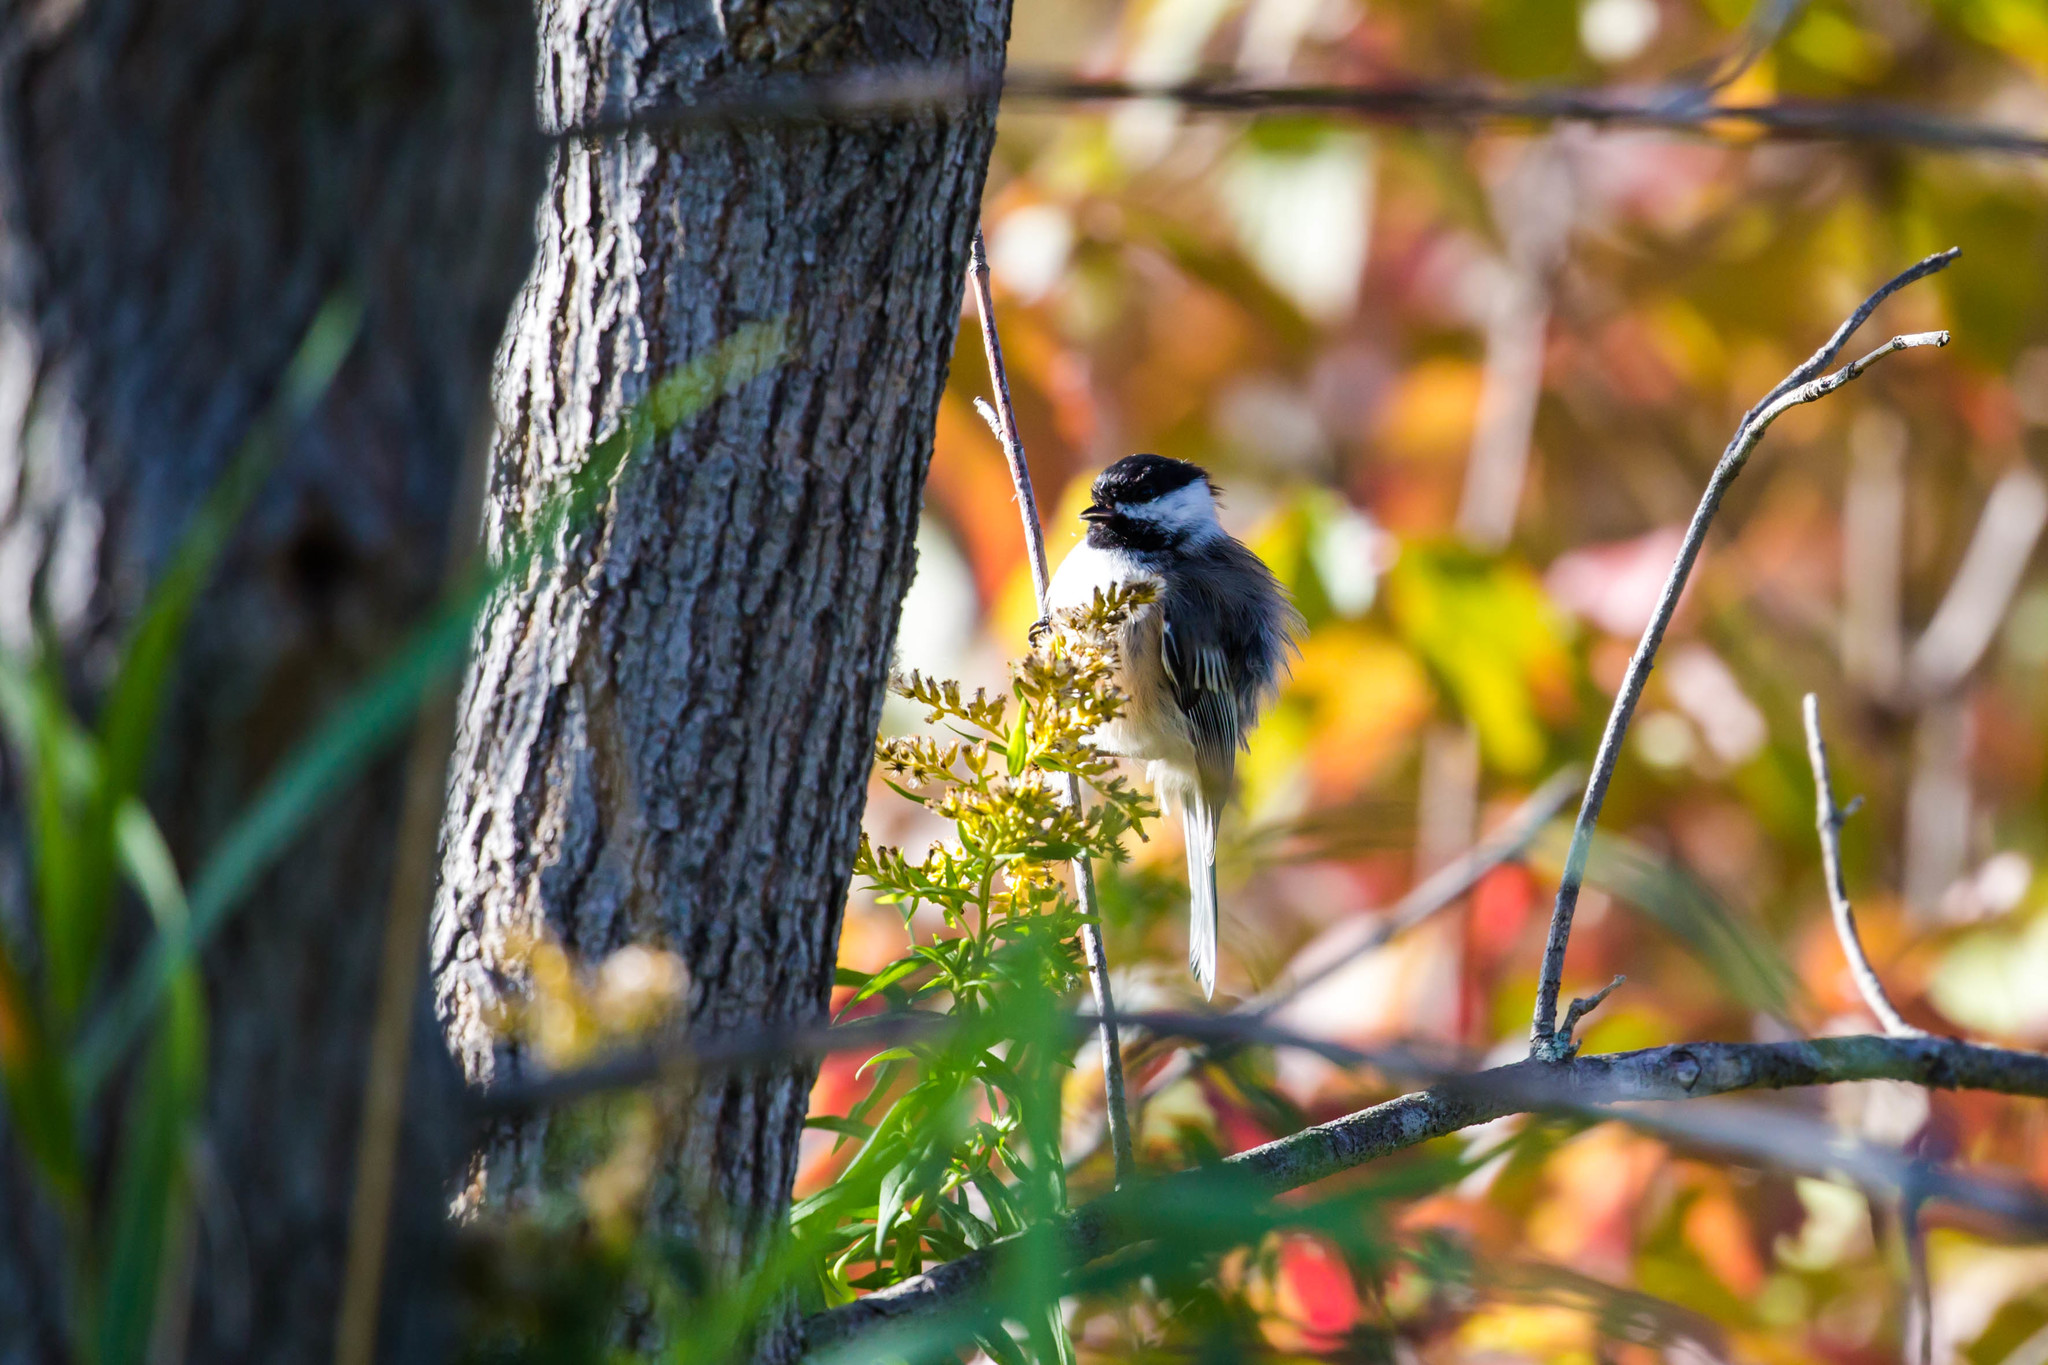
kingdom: Animalia
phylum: Chordata
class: Aves
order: Passeriformes
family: Paridae
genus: Poecile
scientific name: Poecile atricapillus
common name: Black-capped chickadee
